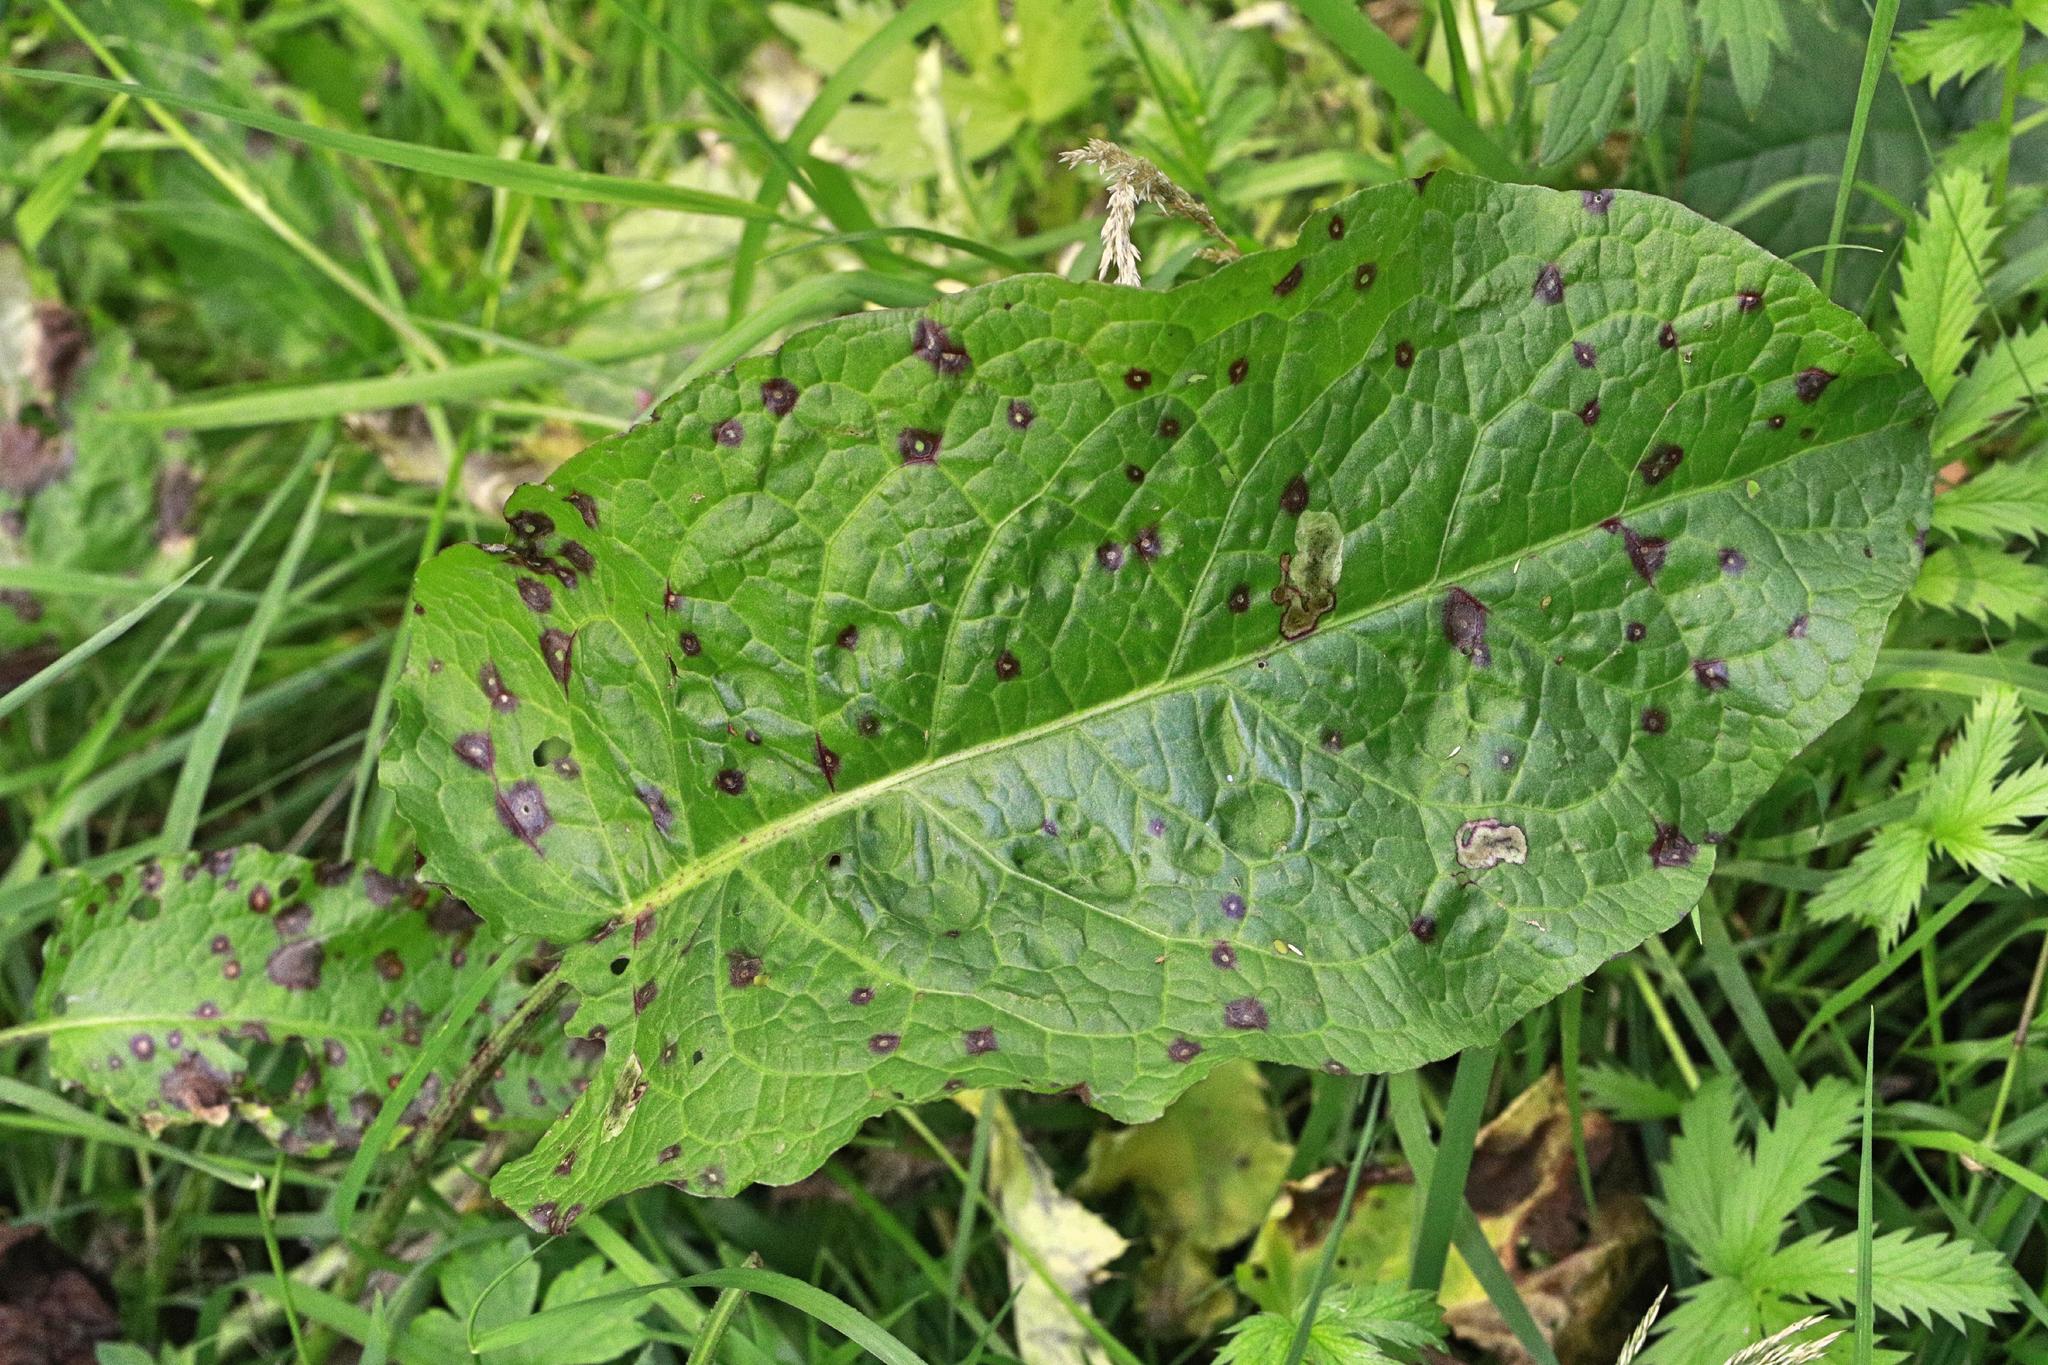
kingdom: Plantae
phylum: Tracheophyta
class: Magnoliopsida
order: Caryophyllales
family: Polygonaceae
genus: Rumex
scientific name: Rumex obtusifolius
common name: Bitter dock
